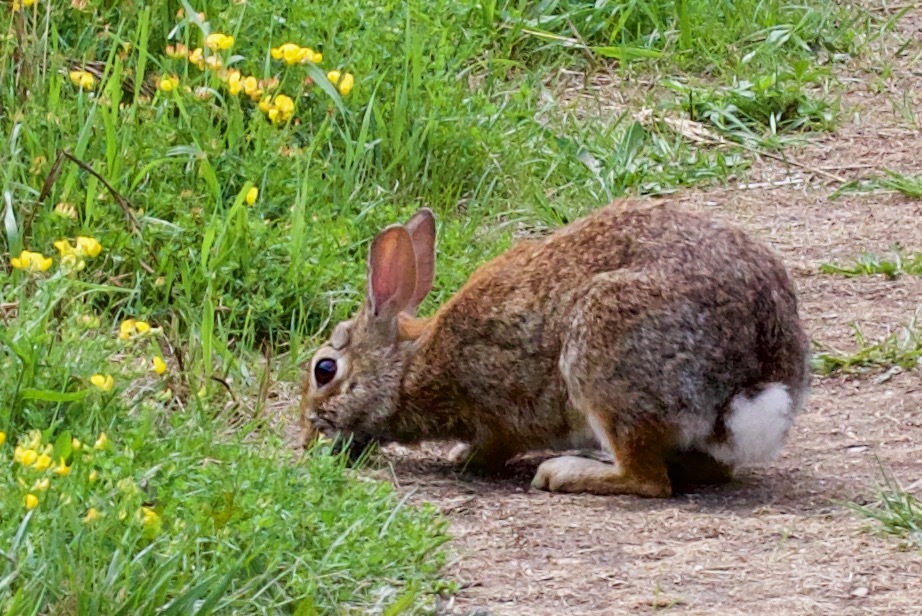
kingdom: Animalia
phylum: Chordata
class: Mammalia
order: Lagomorpha
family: Leporidae
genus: Sylvilagus
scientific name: Sylvilagus floridanus
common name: Eastern cottontail
